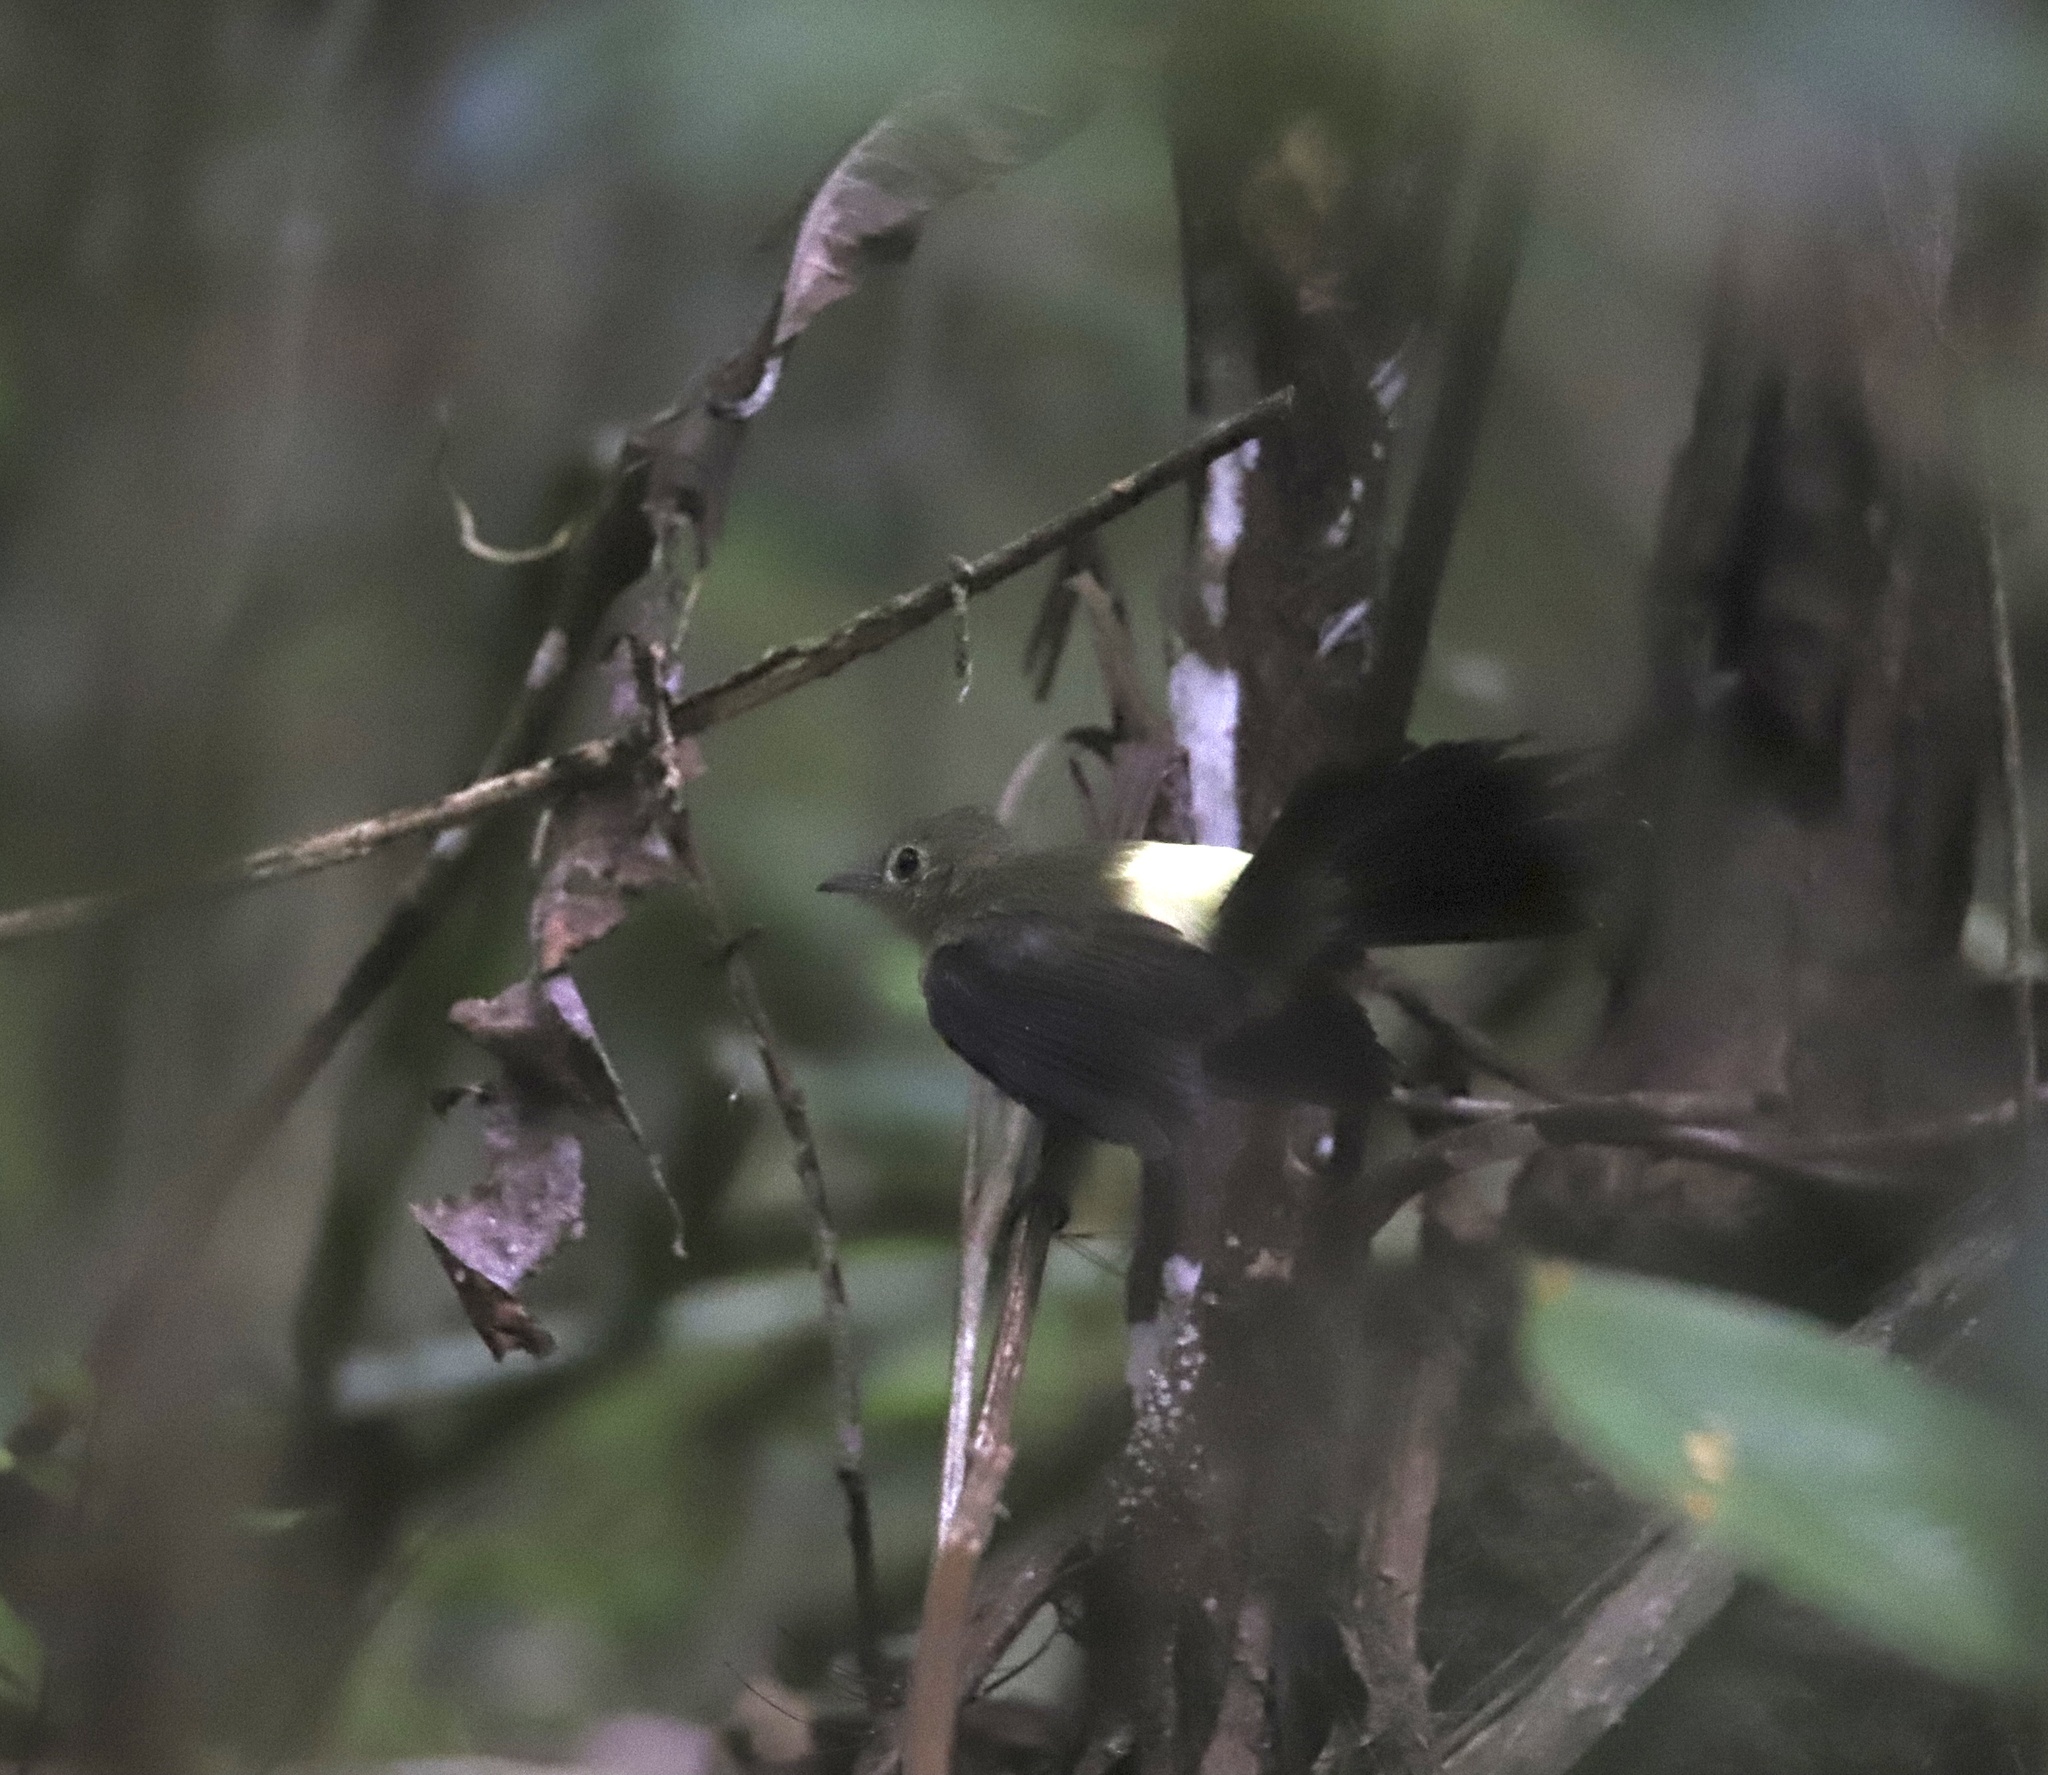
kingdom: Animalia
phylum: Chordata
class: Aves
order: Passeriformes
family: Tyrannidae
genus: Myiobius
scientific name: Myiobius atricaudus
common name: Black-tailed flycatcher
